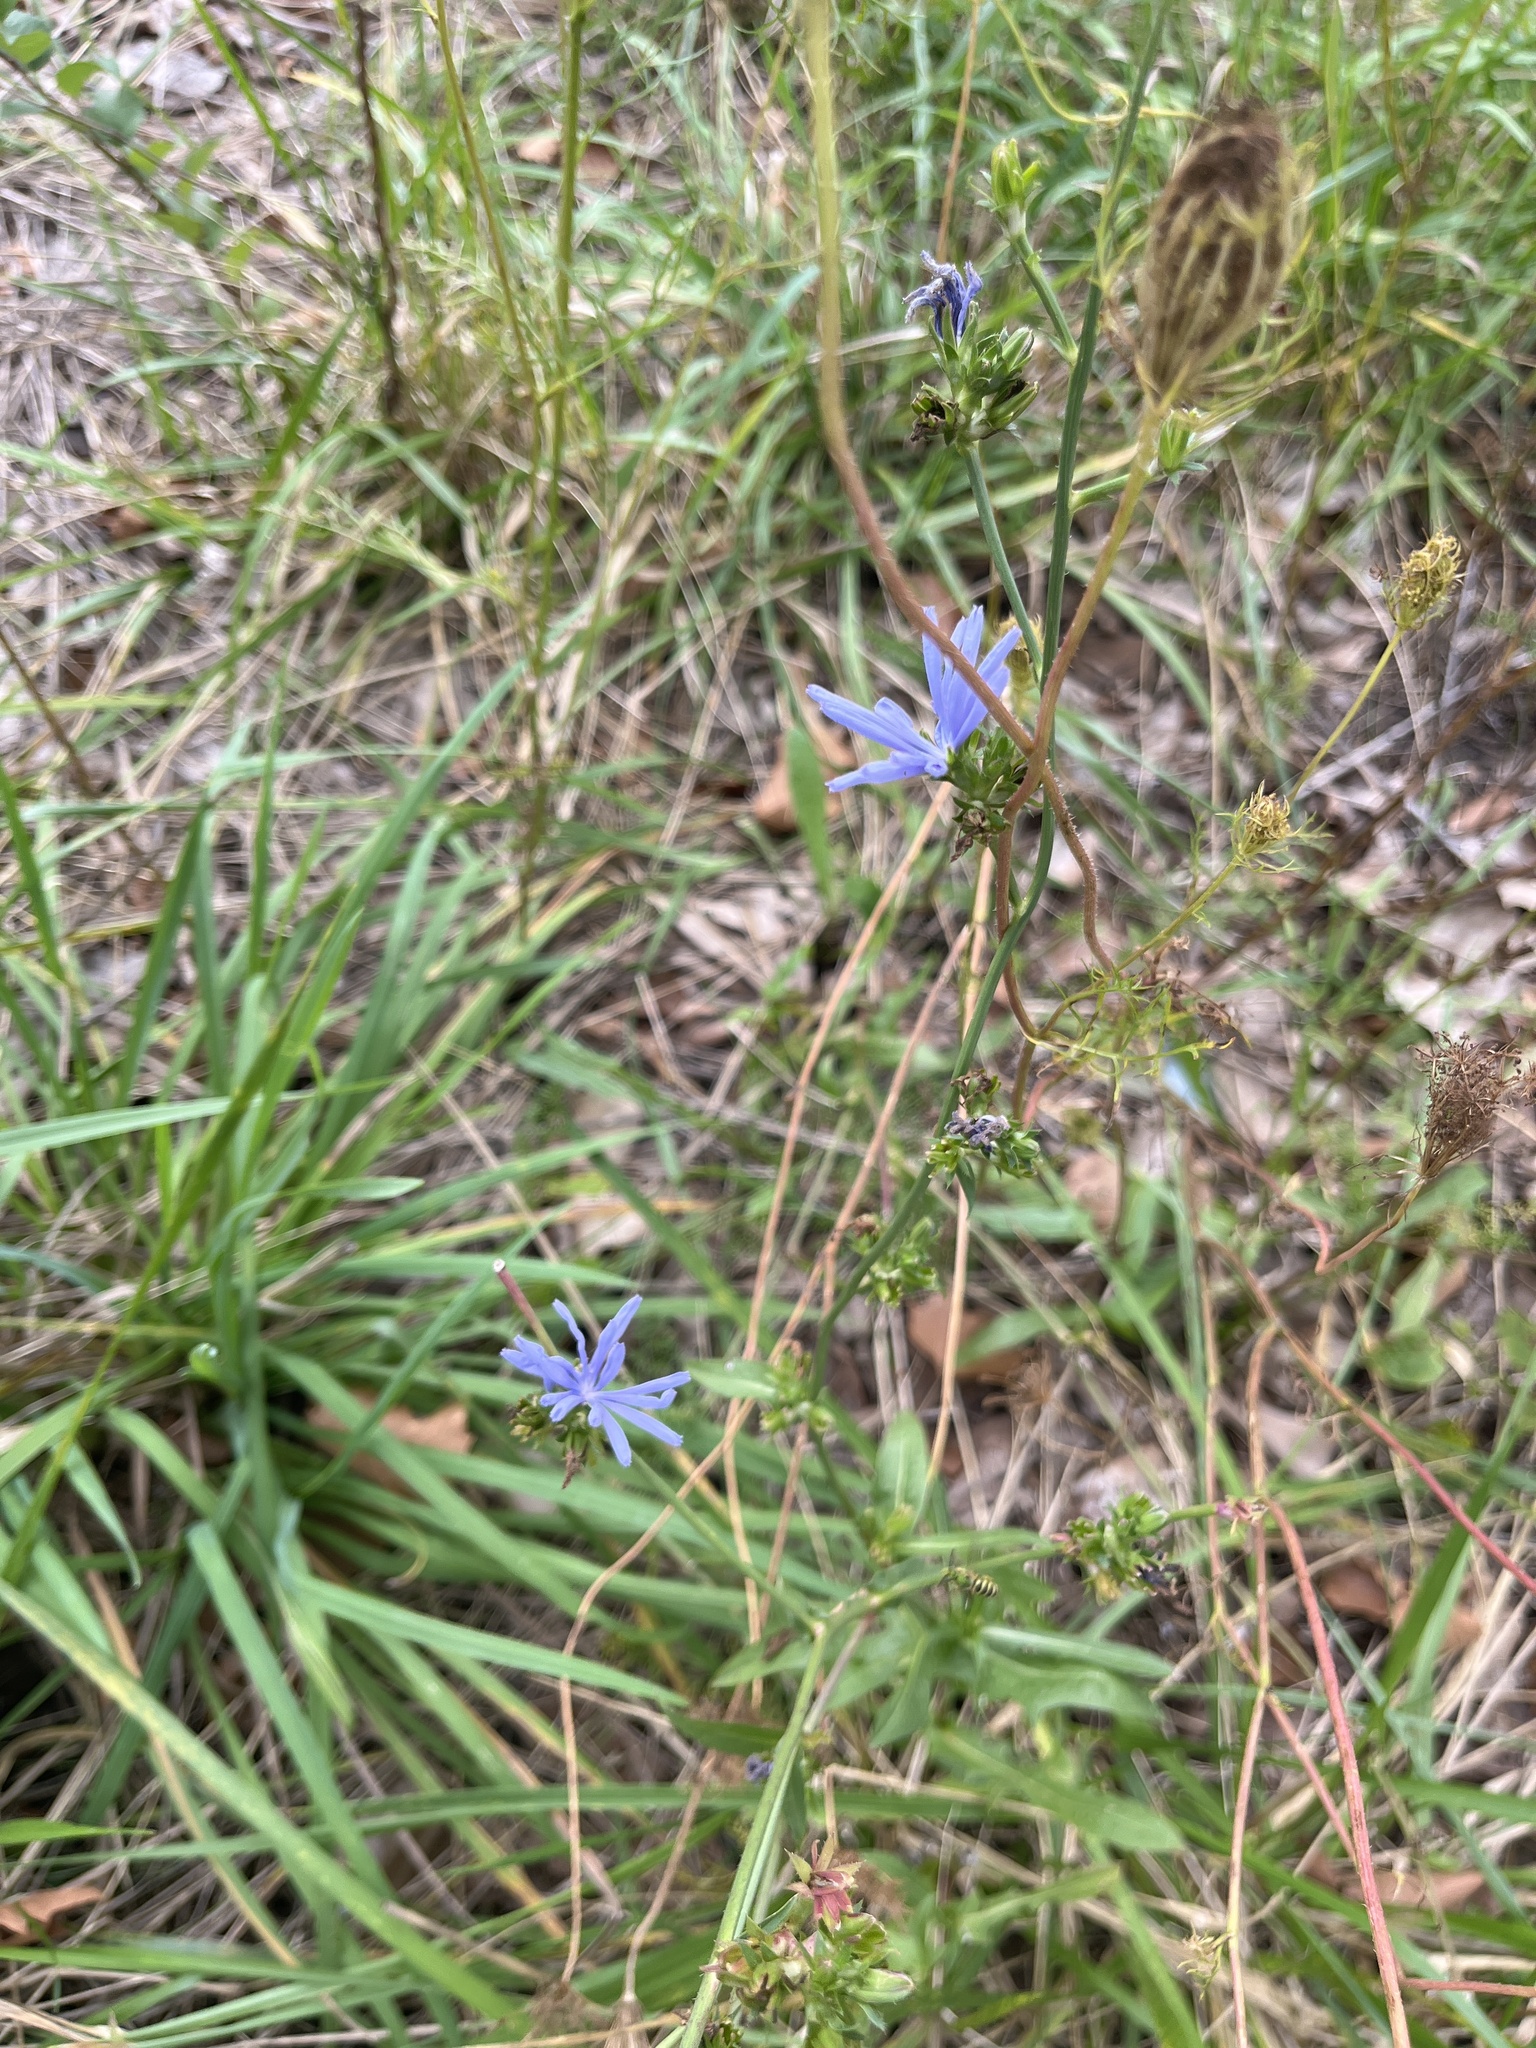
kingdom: Plantae
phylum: Tracheophyta
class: Magnoliopsida
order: Asterales
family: Asteraceae
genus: Cichorium
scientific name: Cichorium intybus
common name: Chicory
